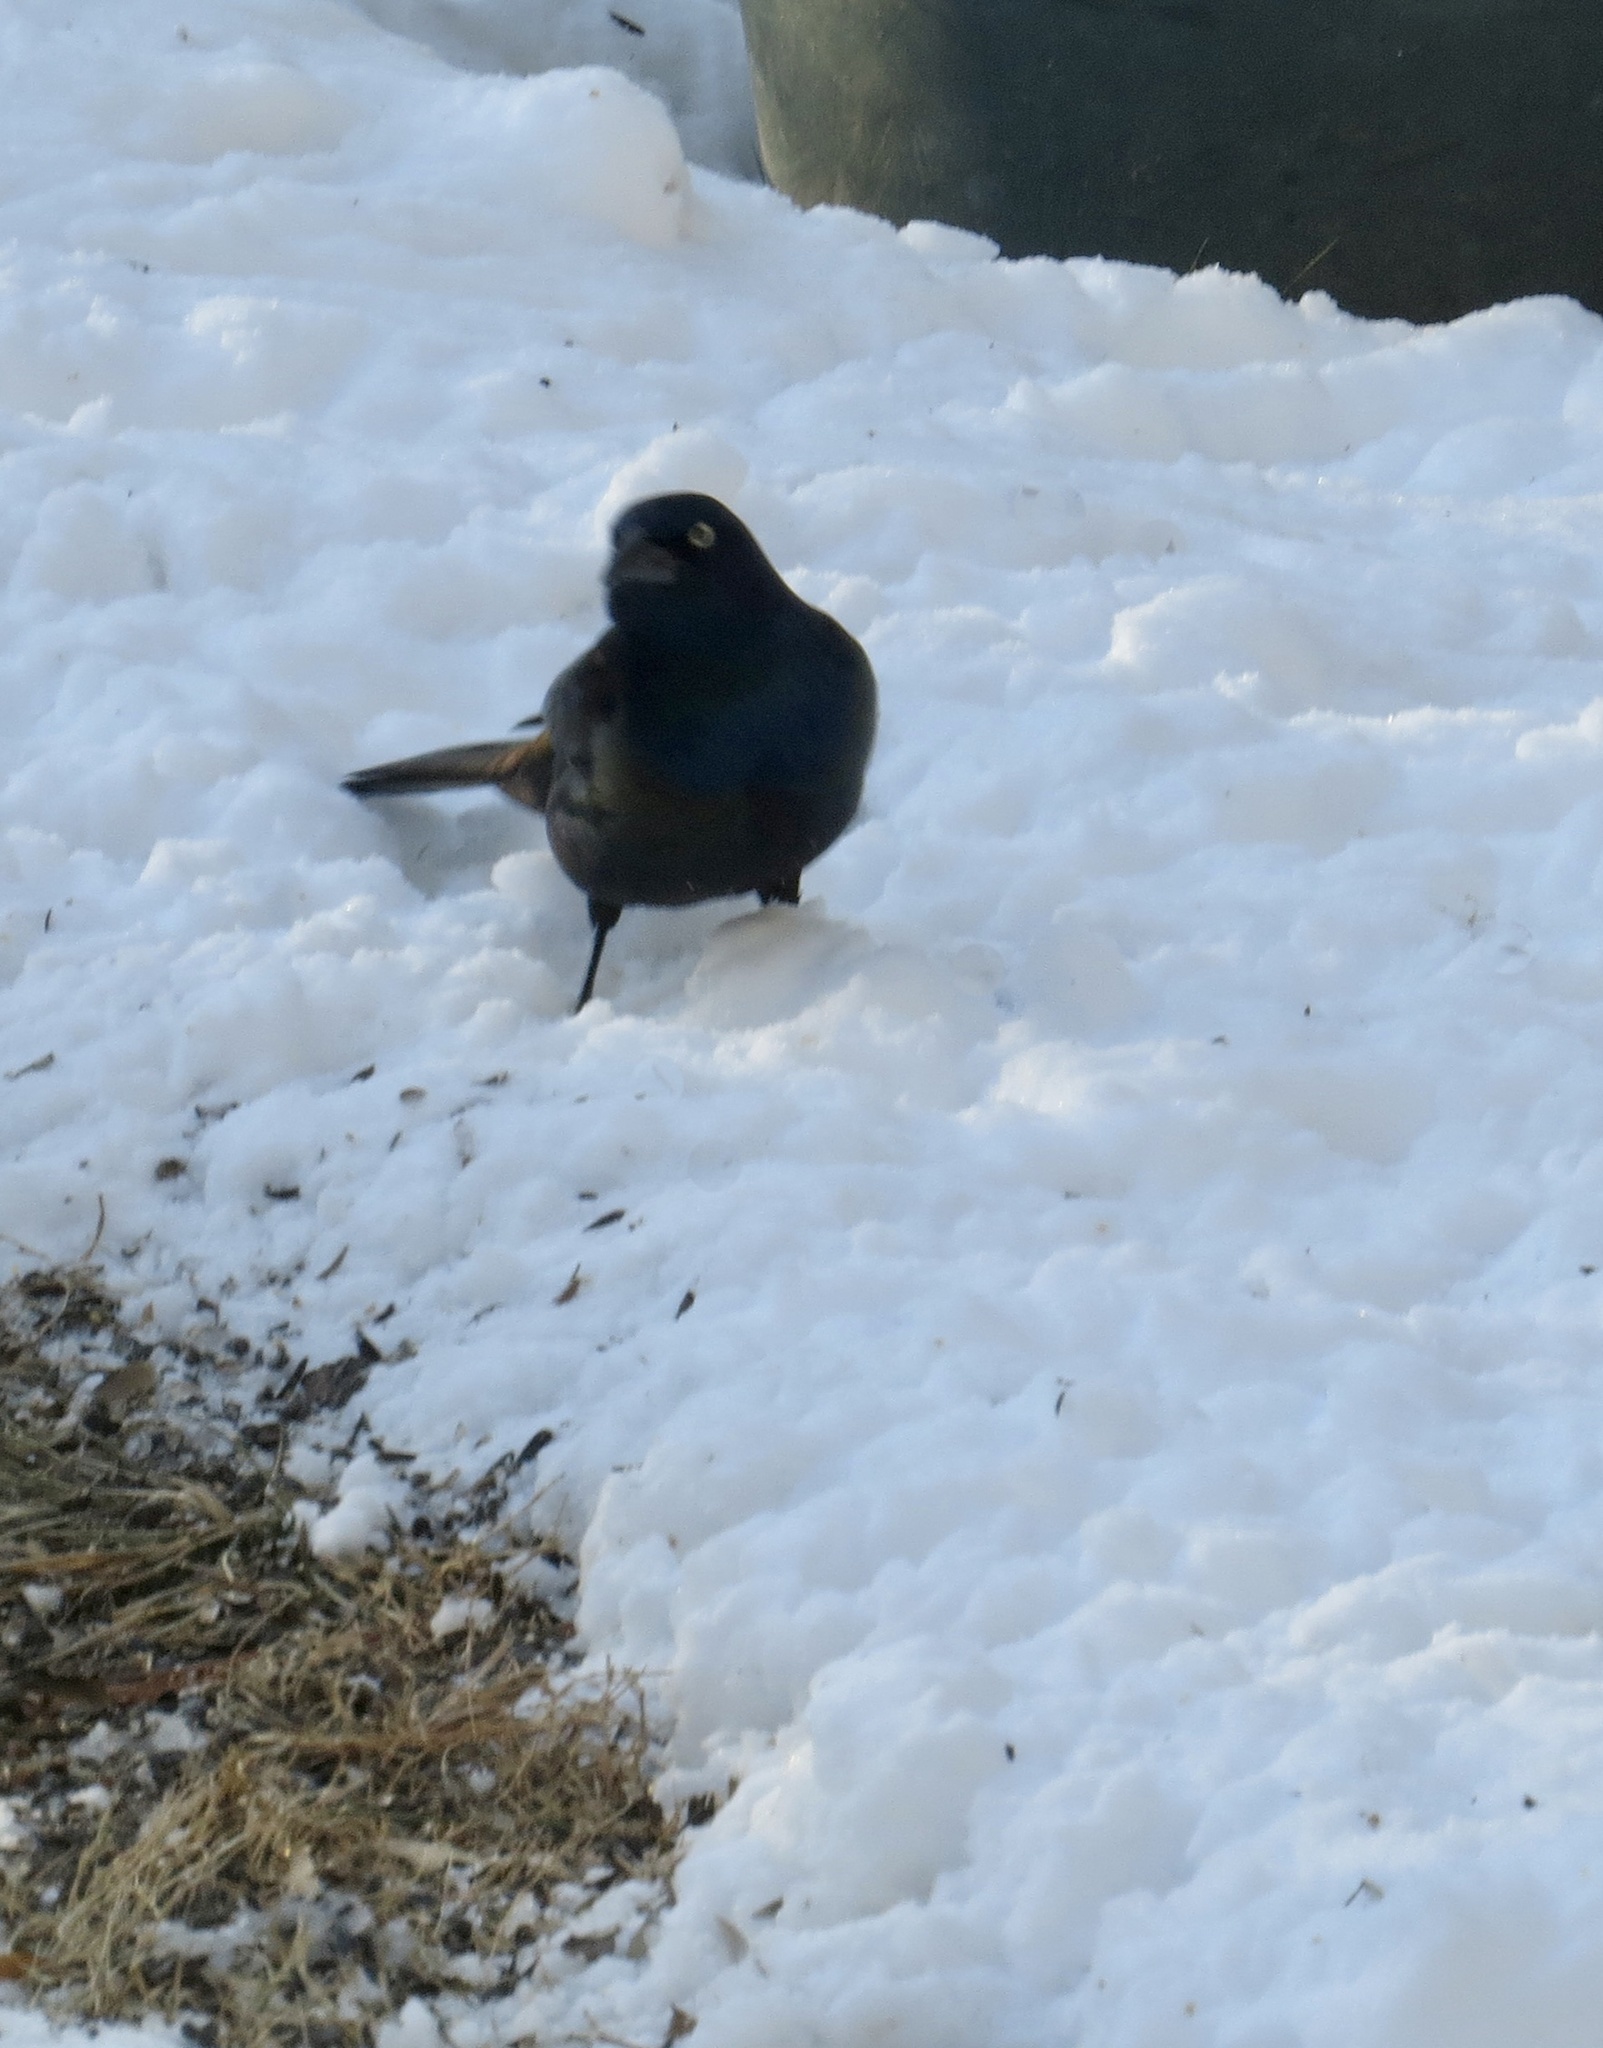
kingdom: Animalia
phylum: Chordata
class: Aves
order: Passeriformes
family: Icteridae
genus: Quiscalus
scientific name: Quiscalus quiscula
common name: Common grackle
